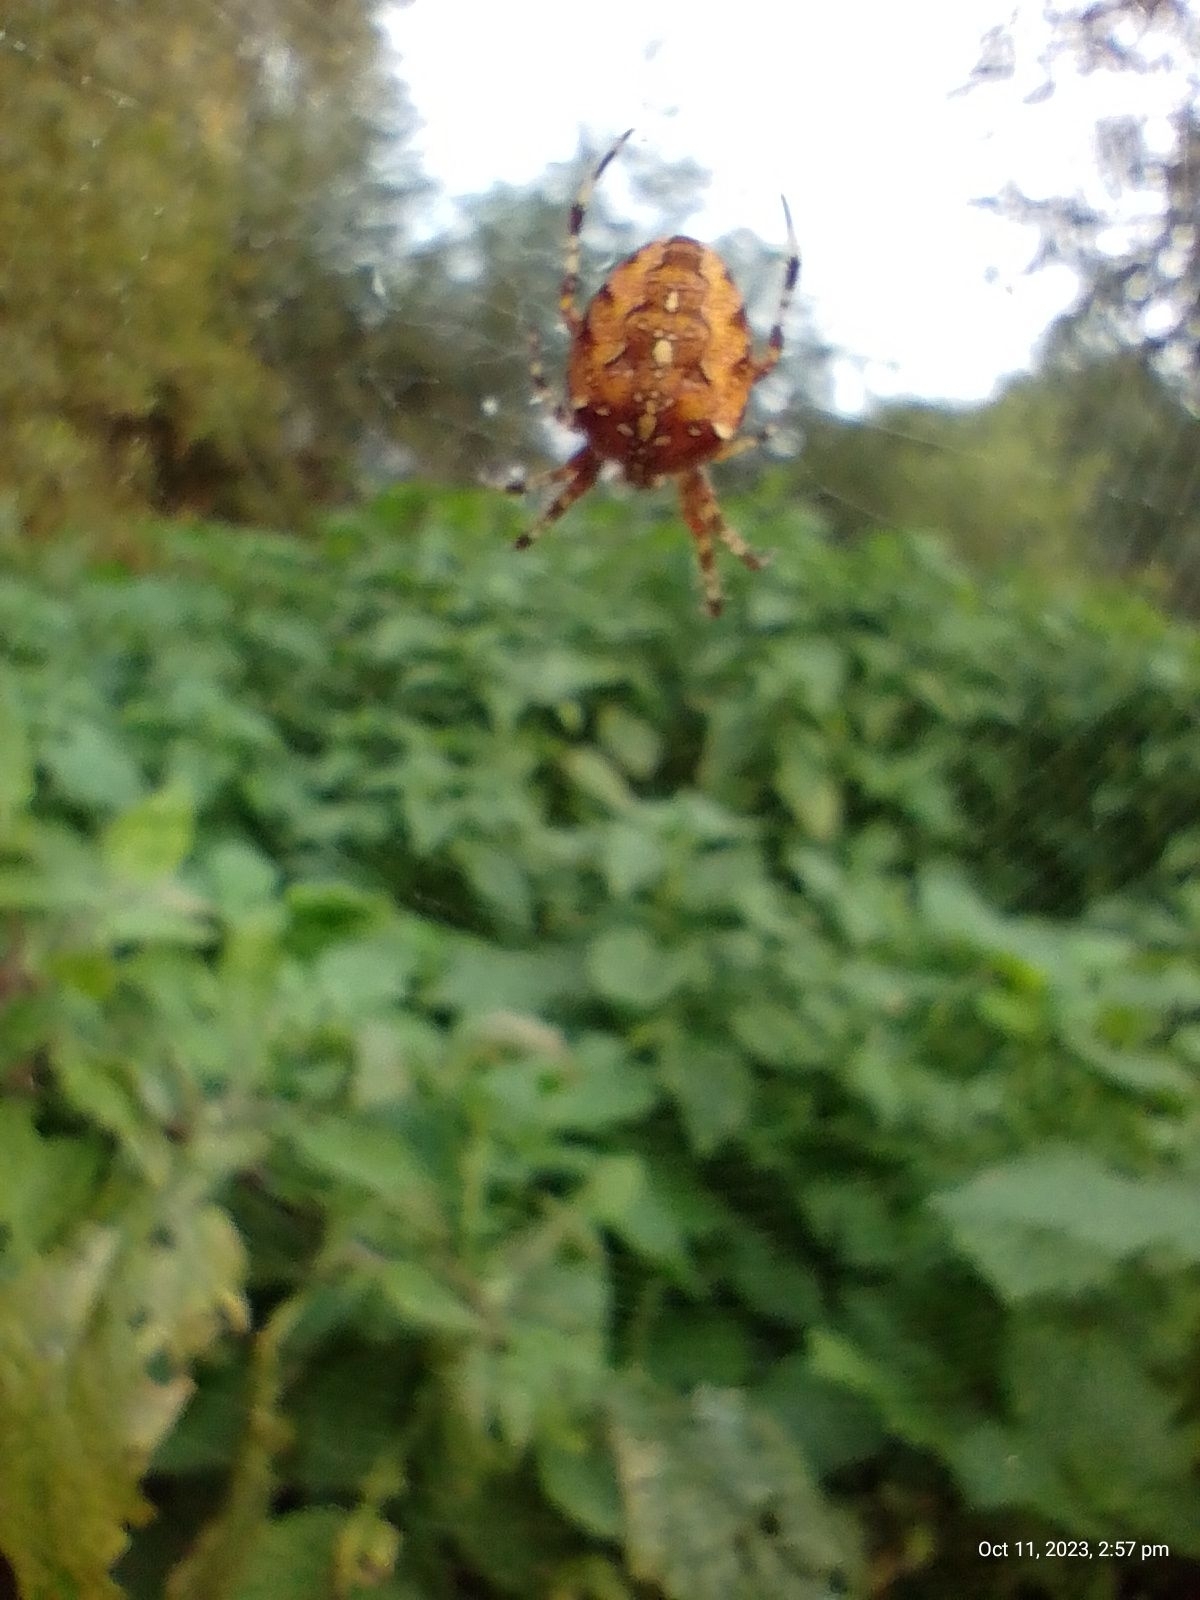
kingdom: Animalia
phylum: Arthropoda
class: Arachnida
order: Araneae
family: Araneidae
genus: Araneus
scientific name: Araneus diadematus
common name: Cross orbweaver
